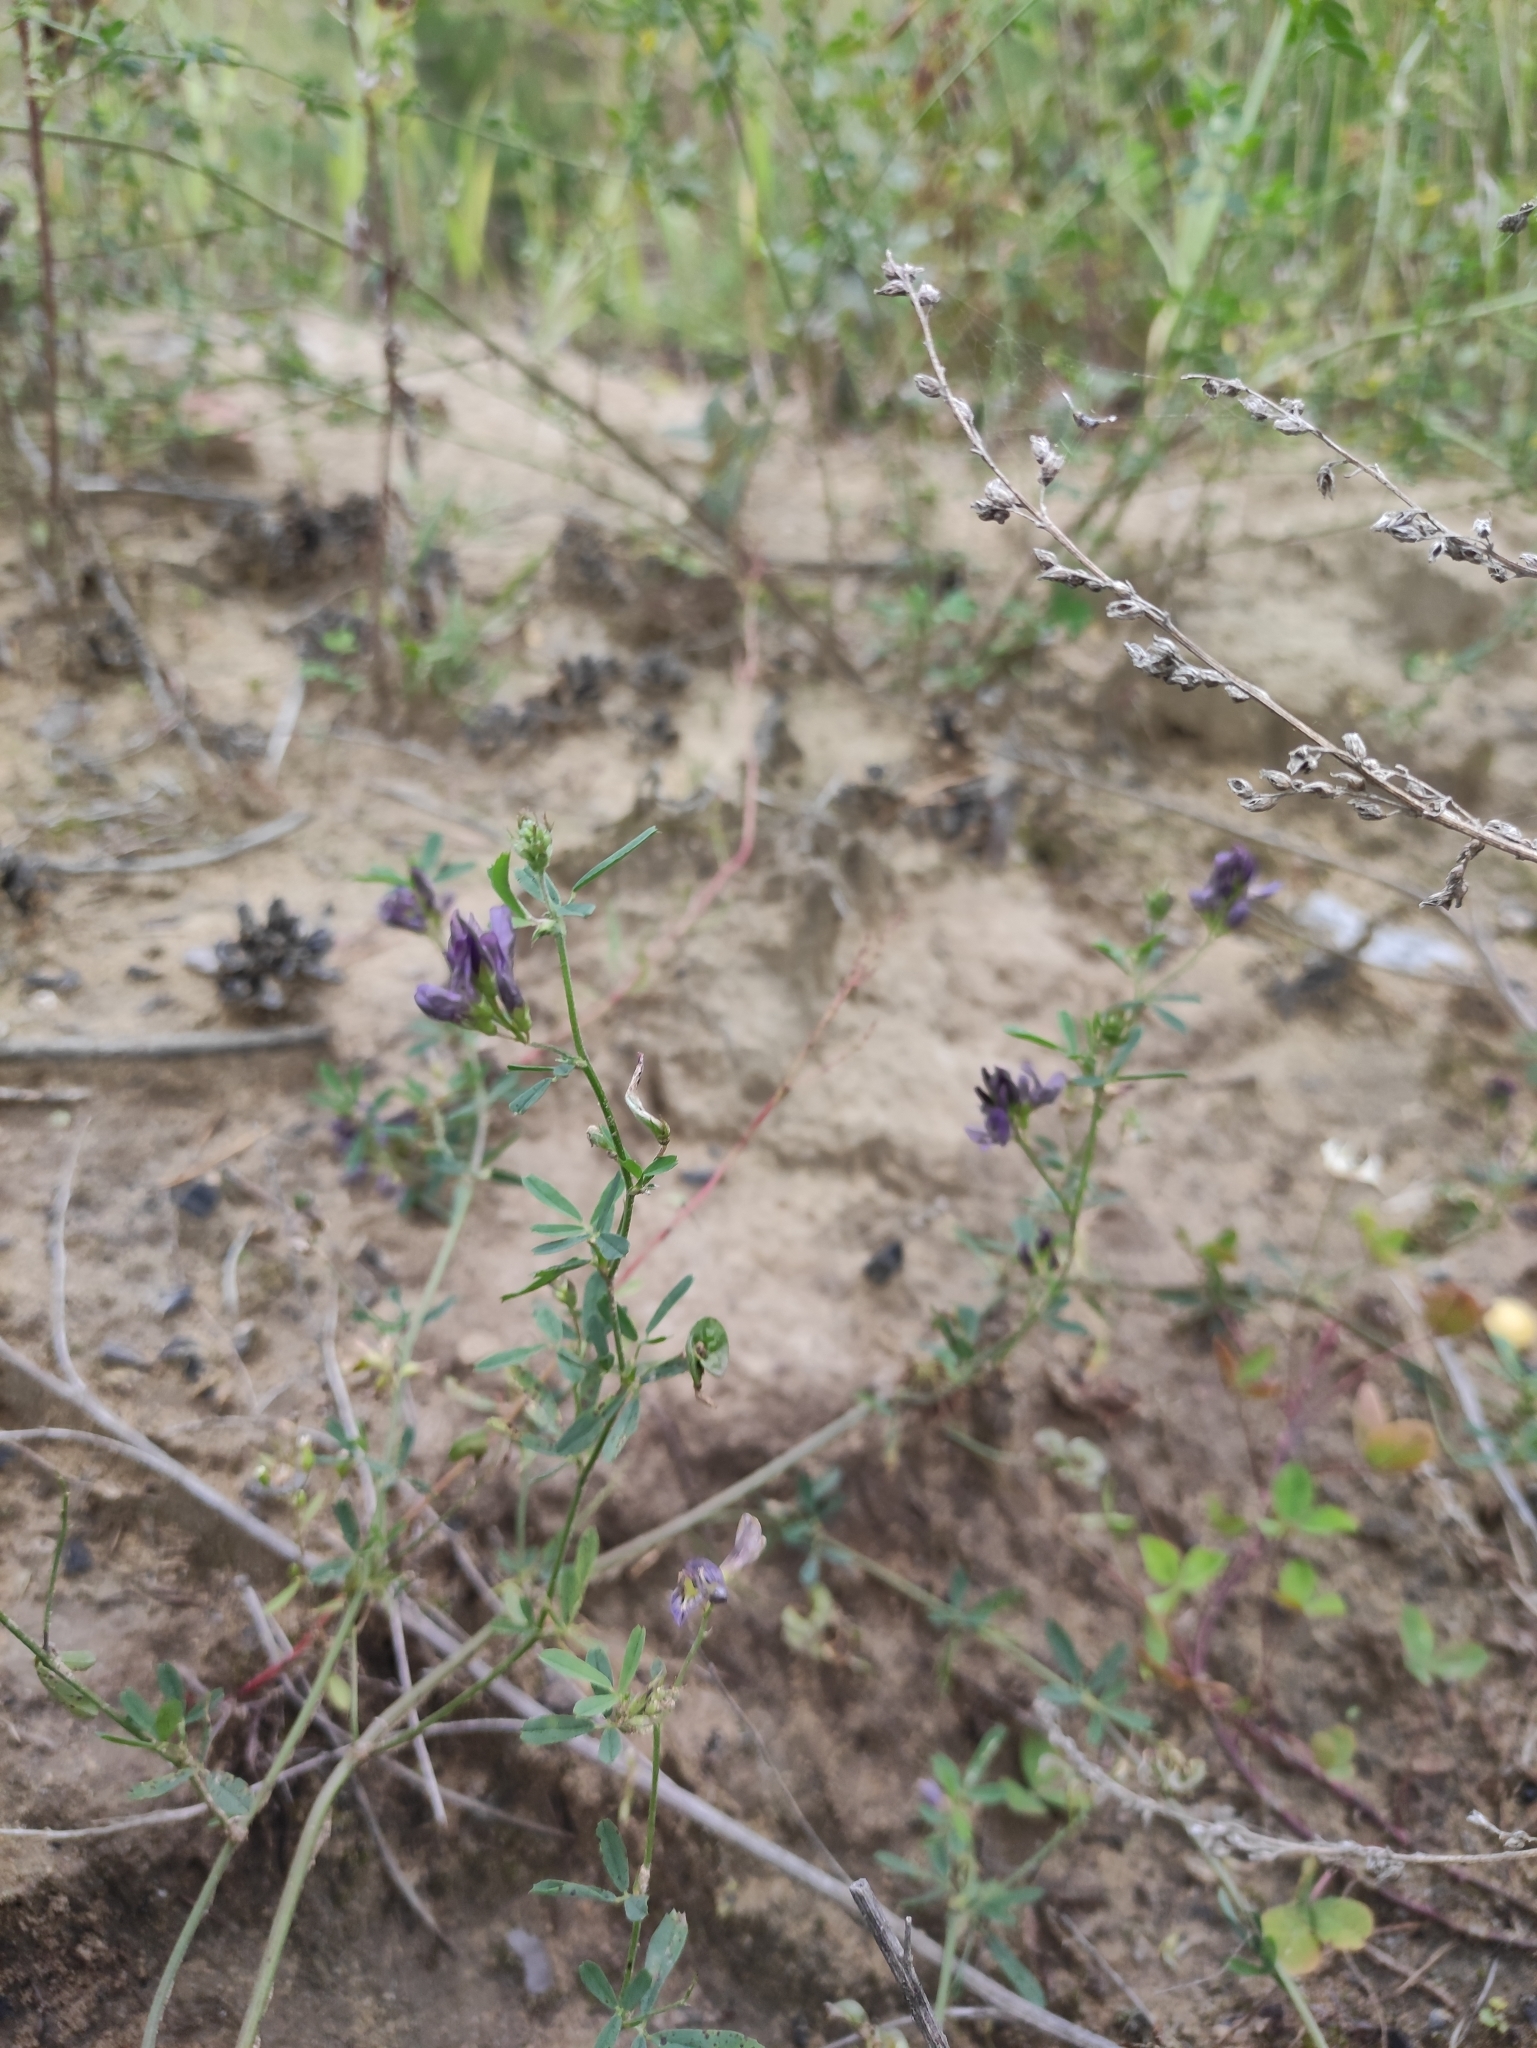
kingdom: Plantae
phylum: Tracheophyta
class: Magnoliopsida
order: Fabales
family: Fabaceae
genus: Medicago
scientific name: Medicago varia
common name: Sand lucerne
